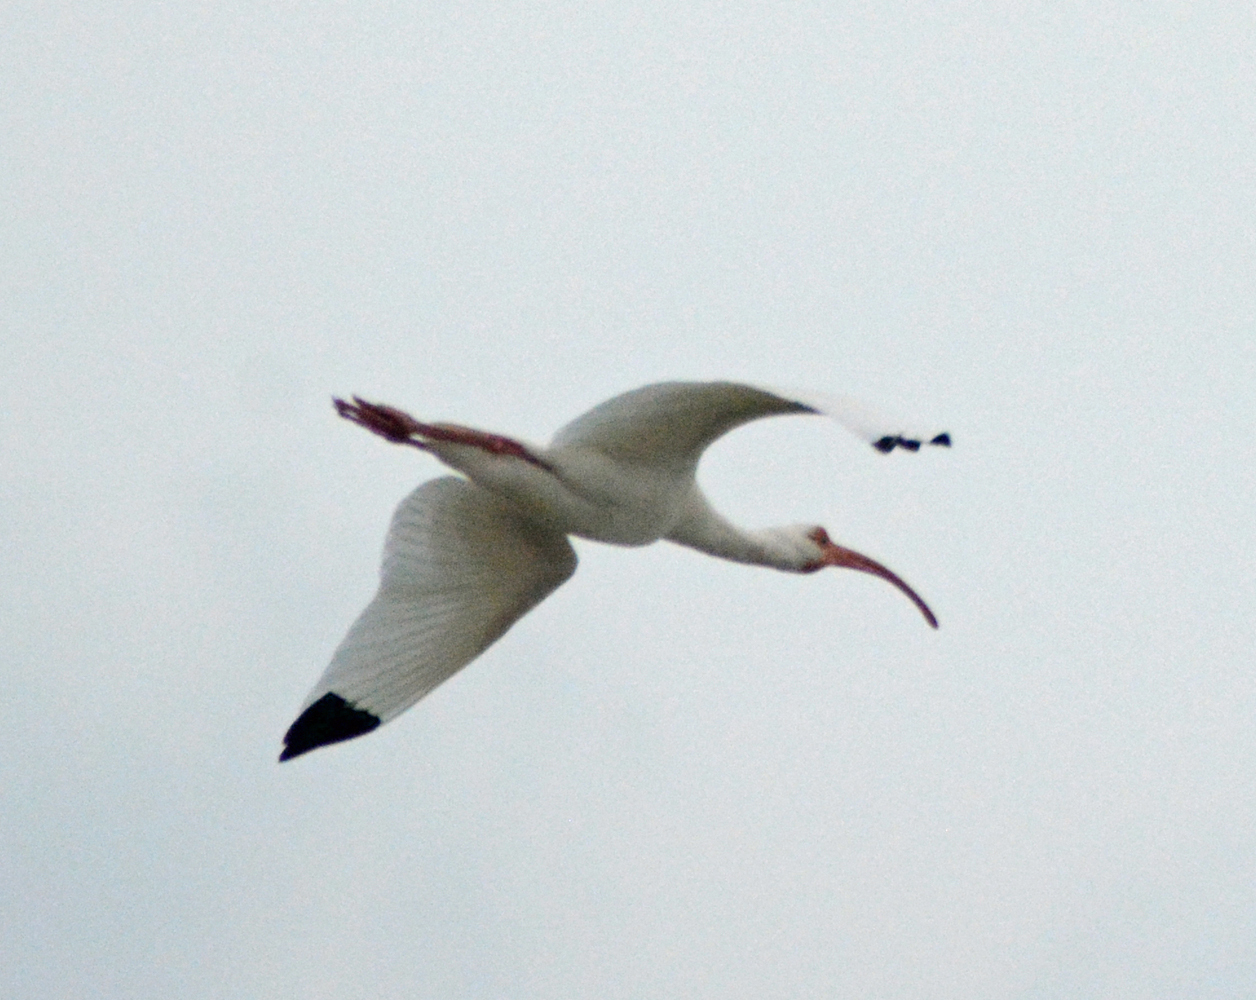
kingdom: Animalia
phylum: Chordata
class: Aves
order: Pelecaniformes
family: Threskiornithidae
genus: Eudocimus
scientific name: Eudocimus albus
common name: White ibis
